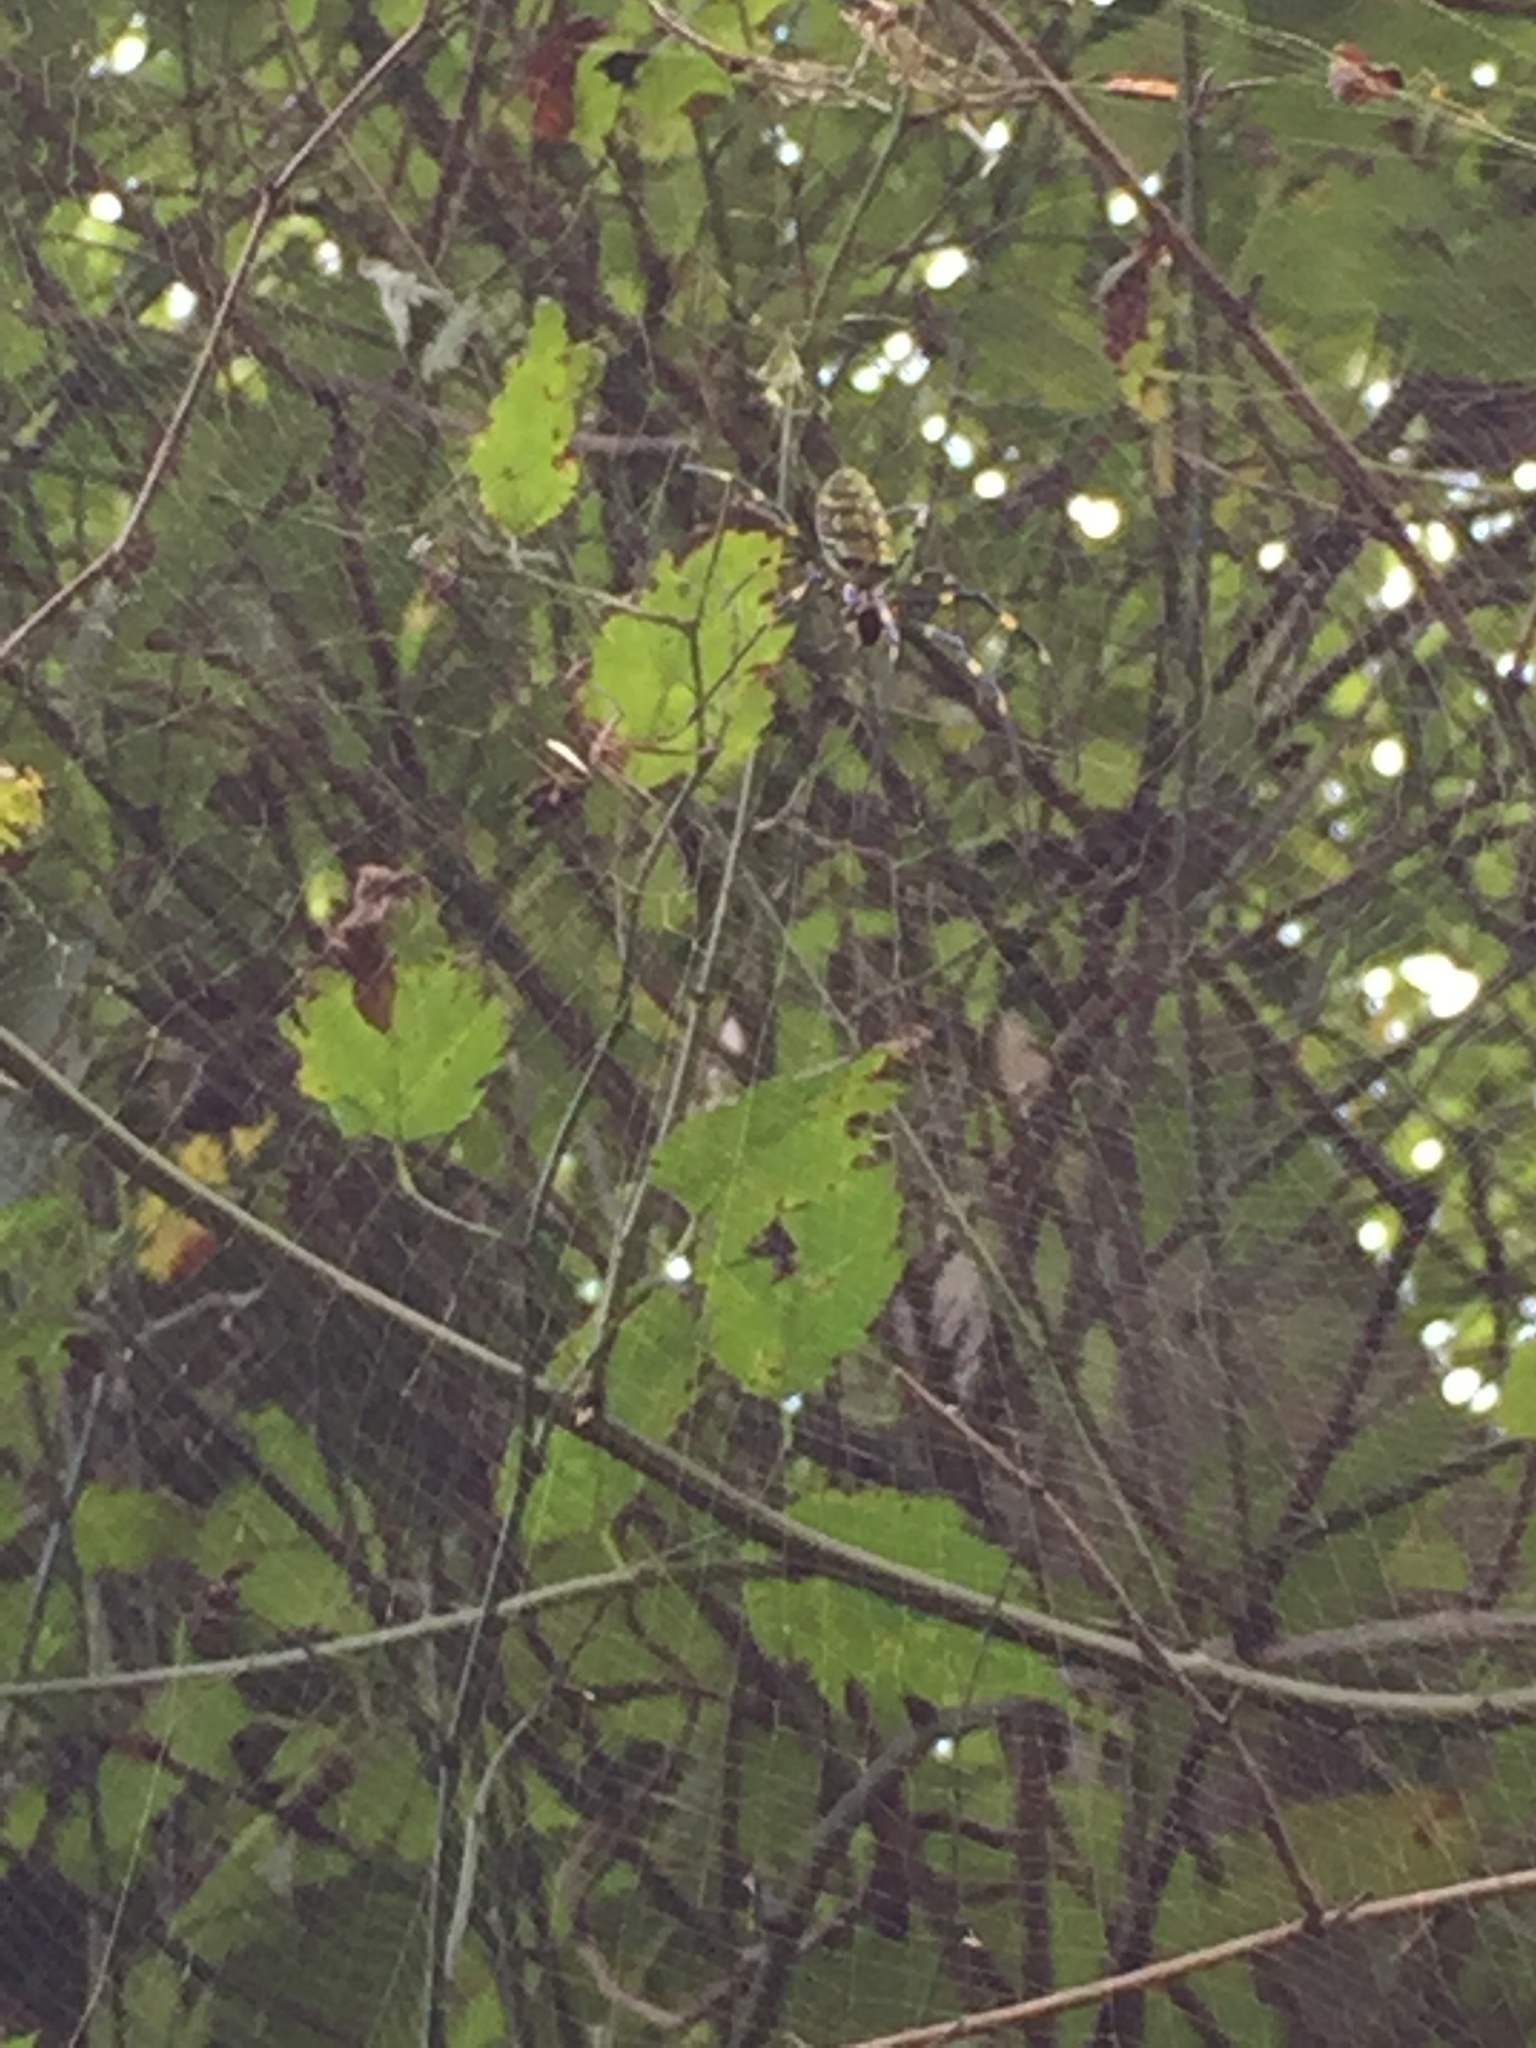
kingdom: Animalia
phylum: Arthropoda
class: Arachnida
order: Araneae
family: Araneidae
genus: Trichonephila
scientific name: Trichonephila clavata
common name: Jorō spider
